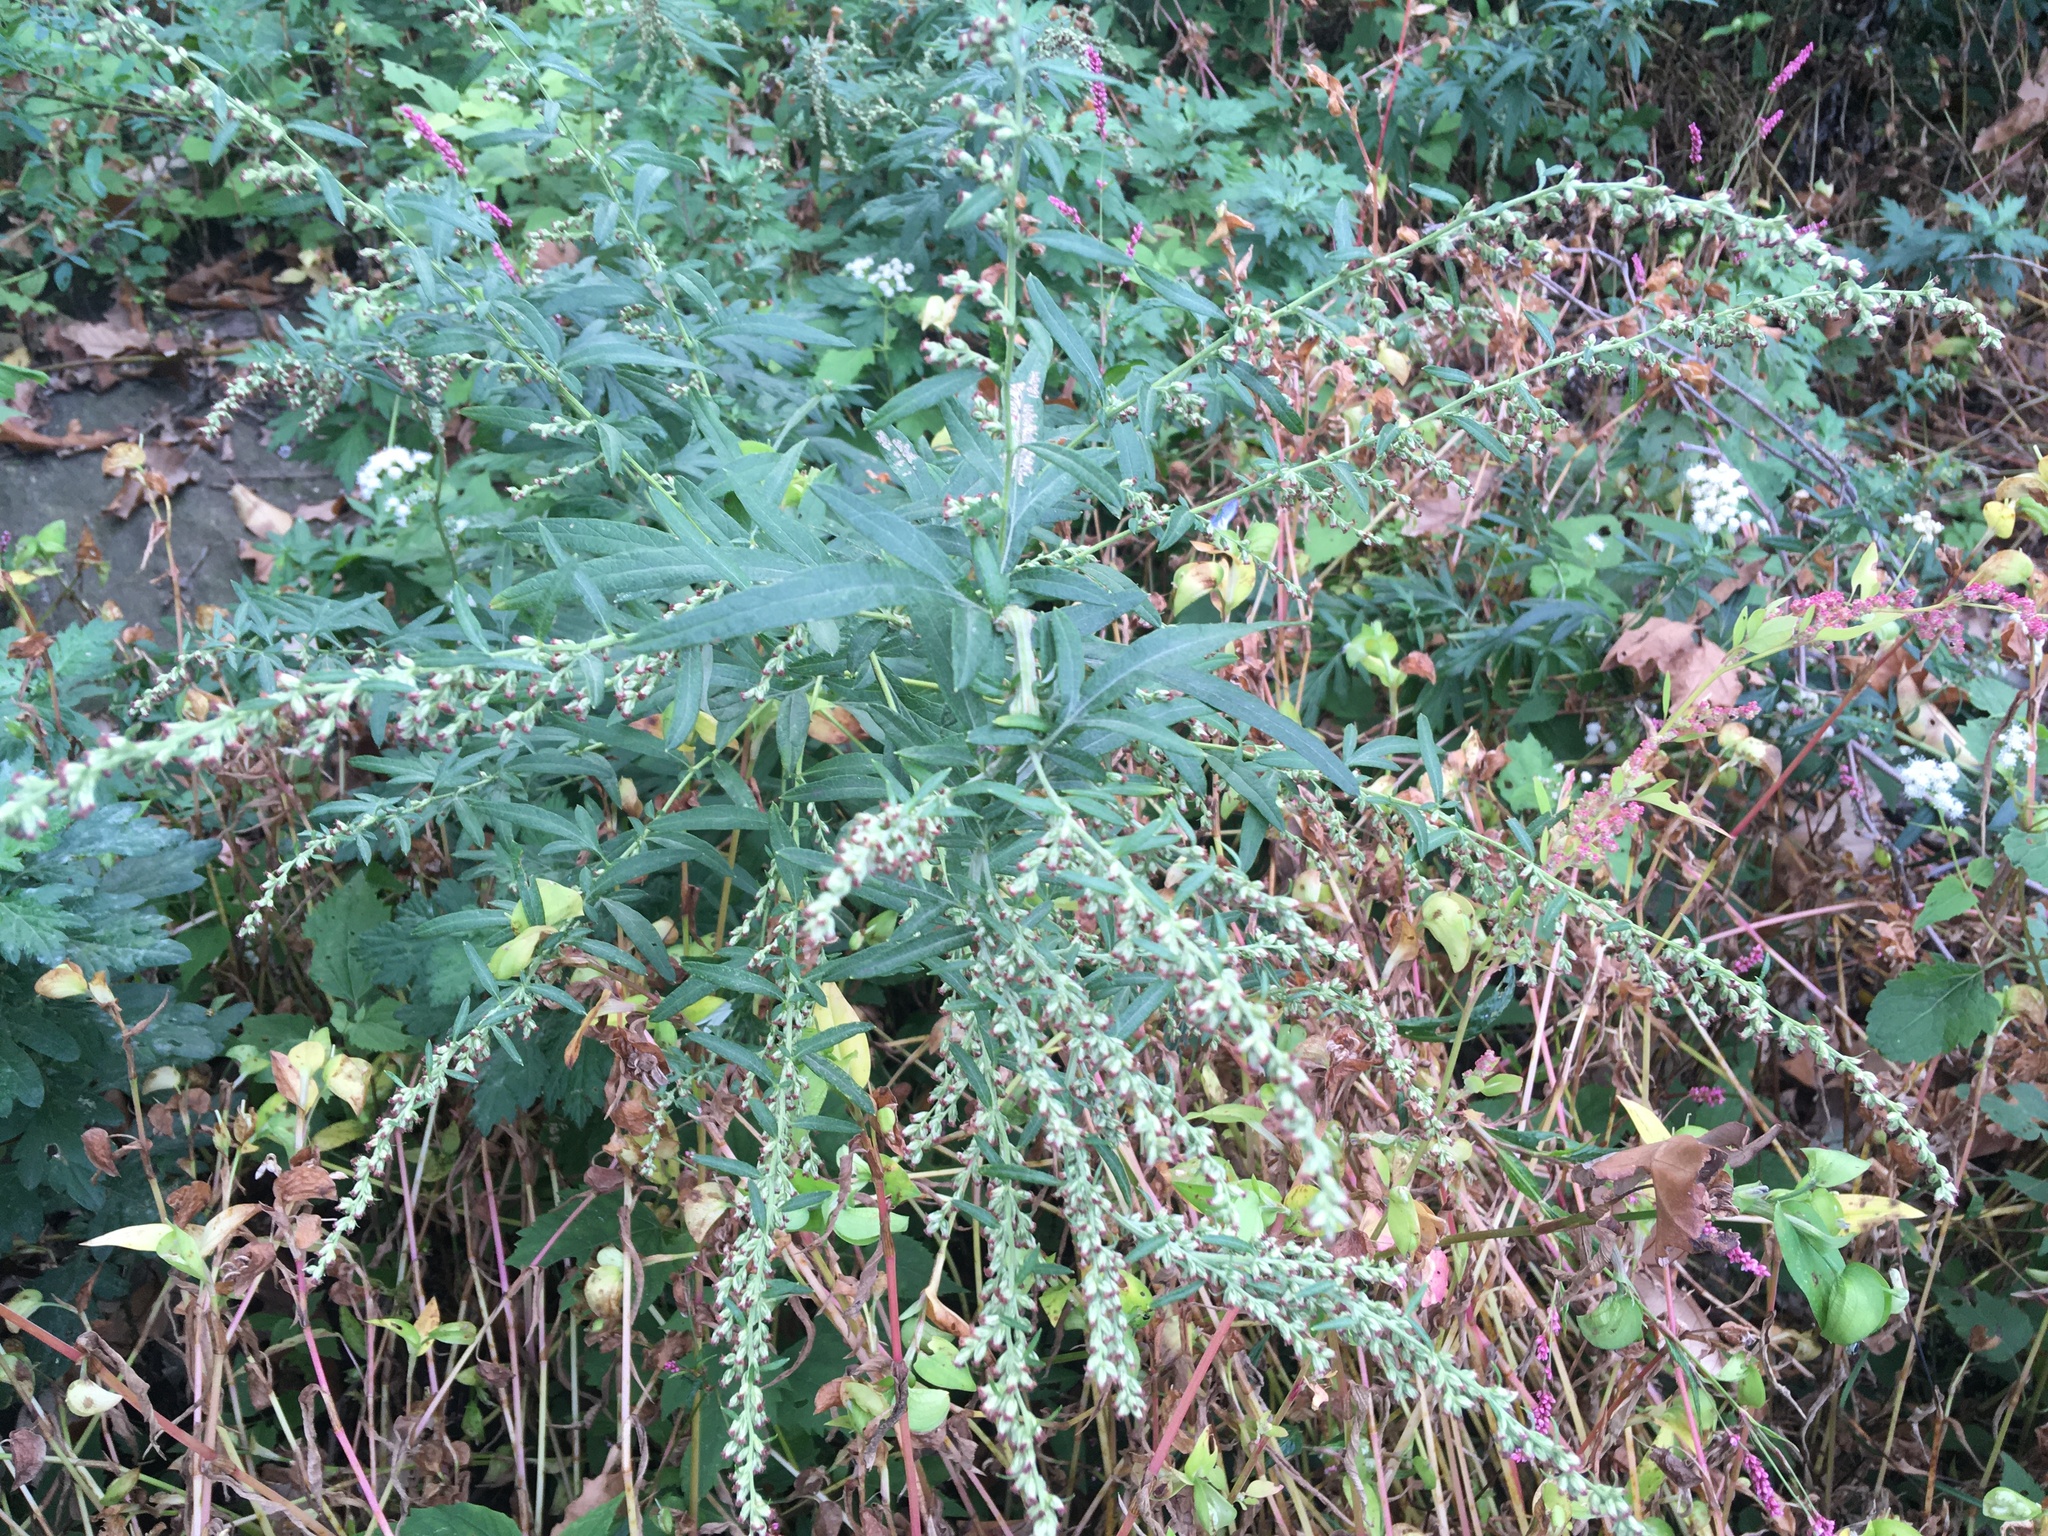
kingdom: Plantae
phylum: Tracheophyta
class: Magnoliopsida
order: Asterales
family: Asteraceae
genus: Artemisia
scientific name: Artemisia vulgaris
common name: Mugwort
